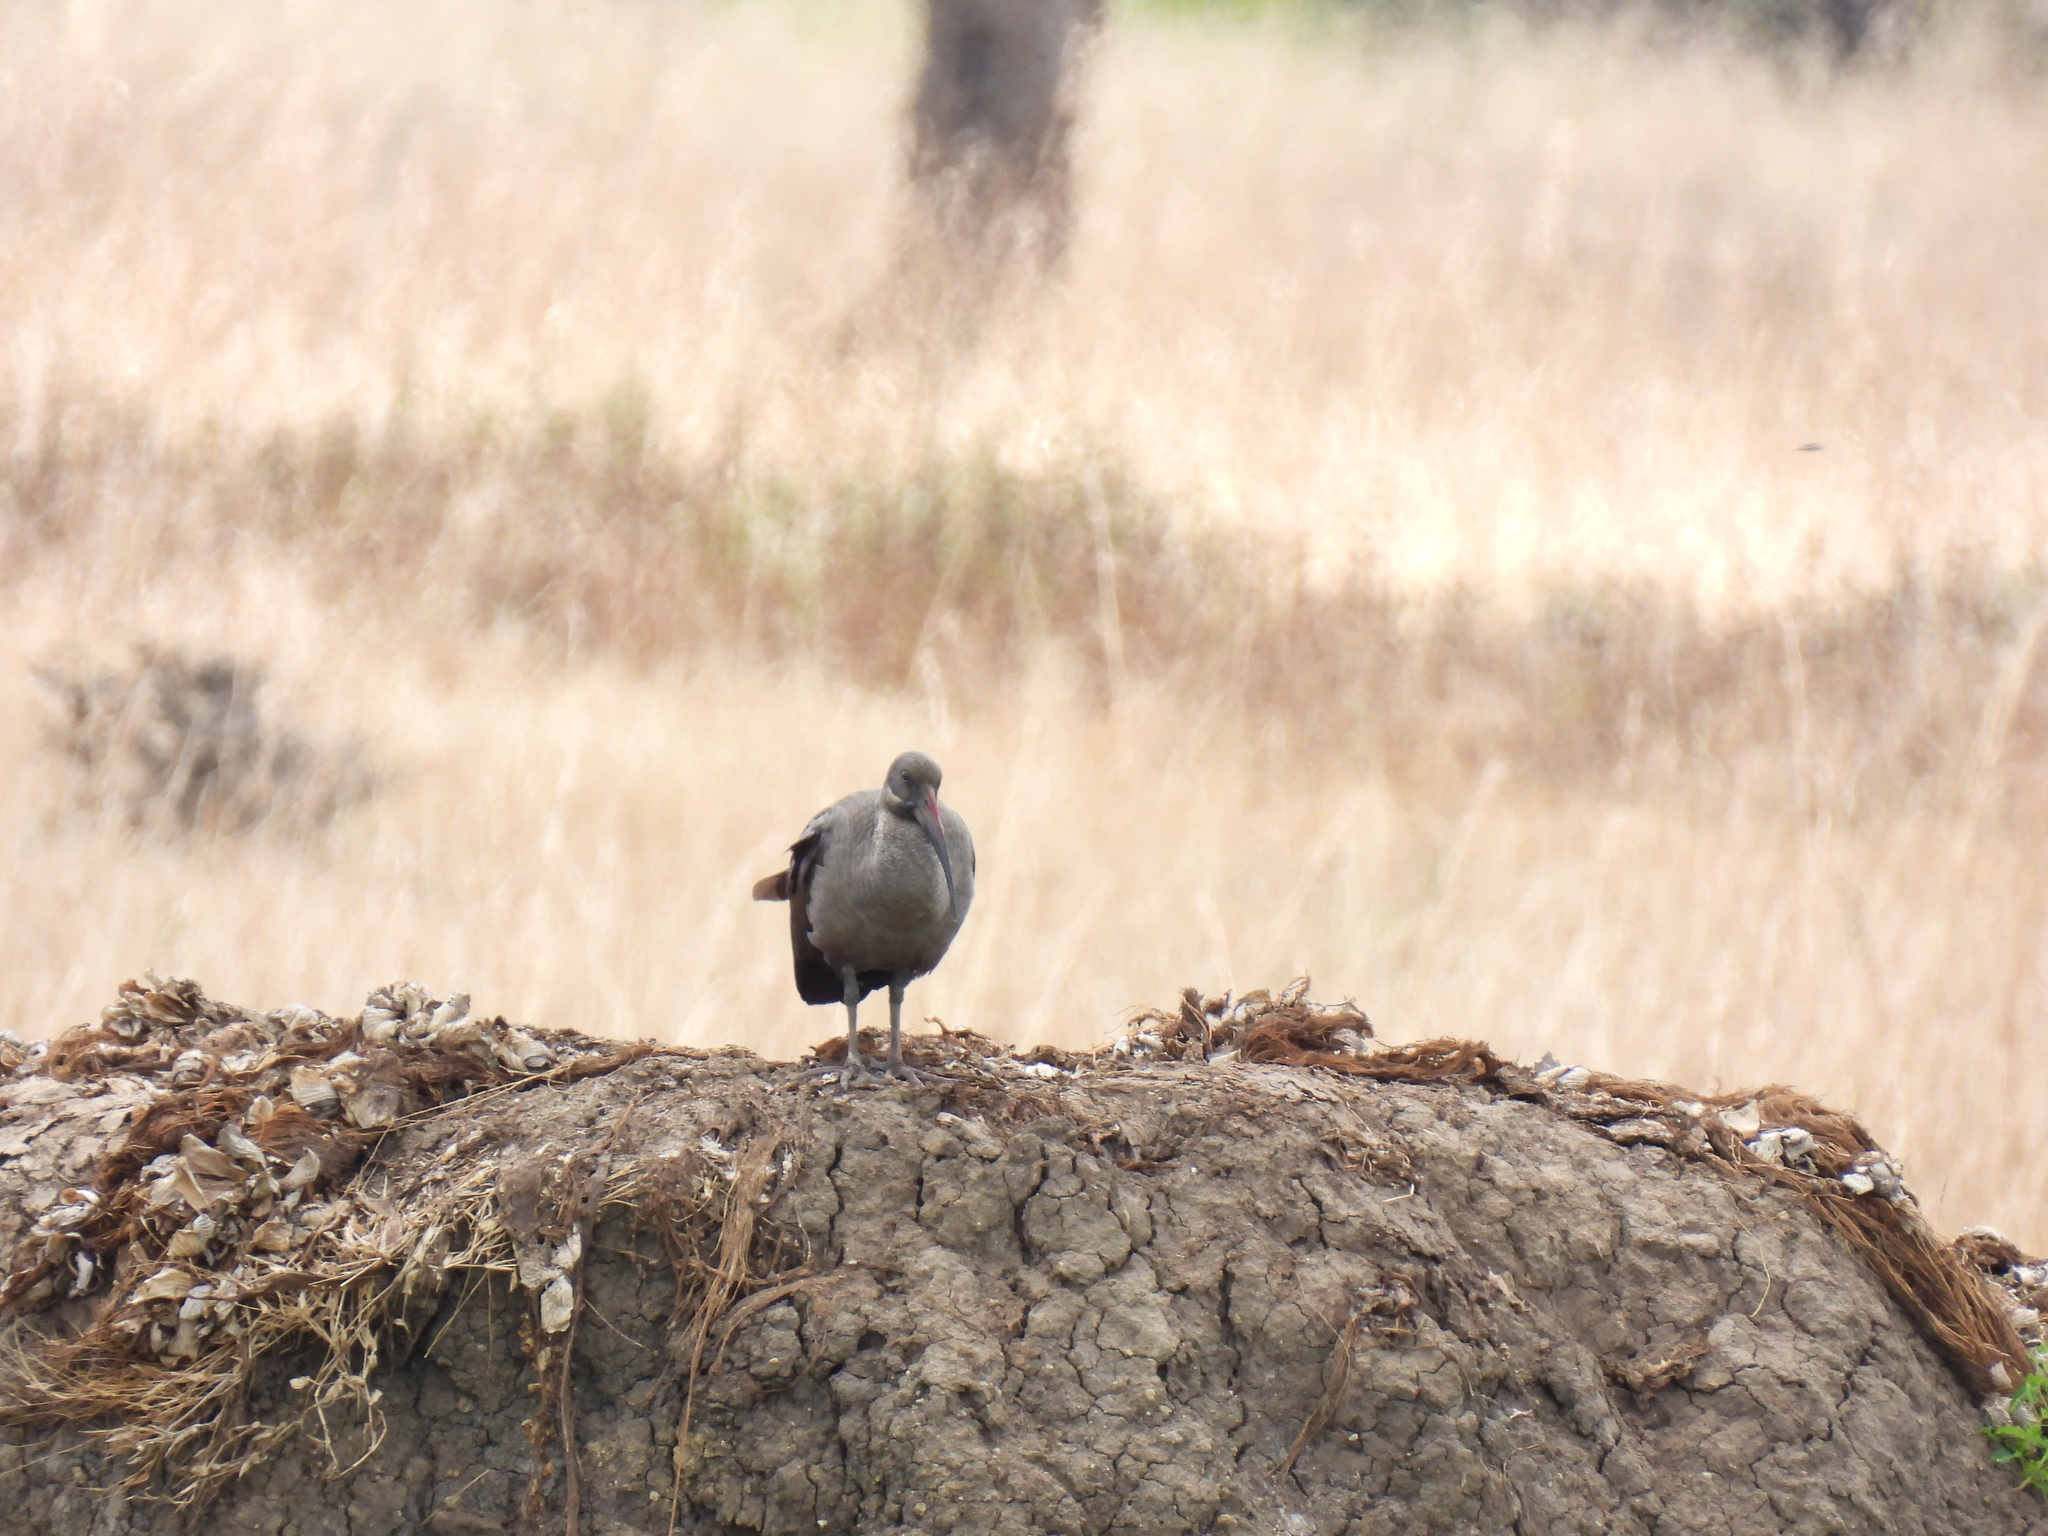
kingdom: Animalia
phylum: Chordata
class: Aves
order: Pelecaniformes
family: Threskiornithidae
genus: Bostrychia
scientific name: Bostrychia hagedash
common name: Hadada ibis
